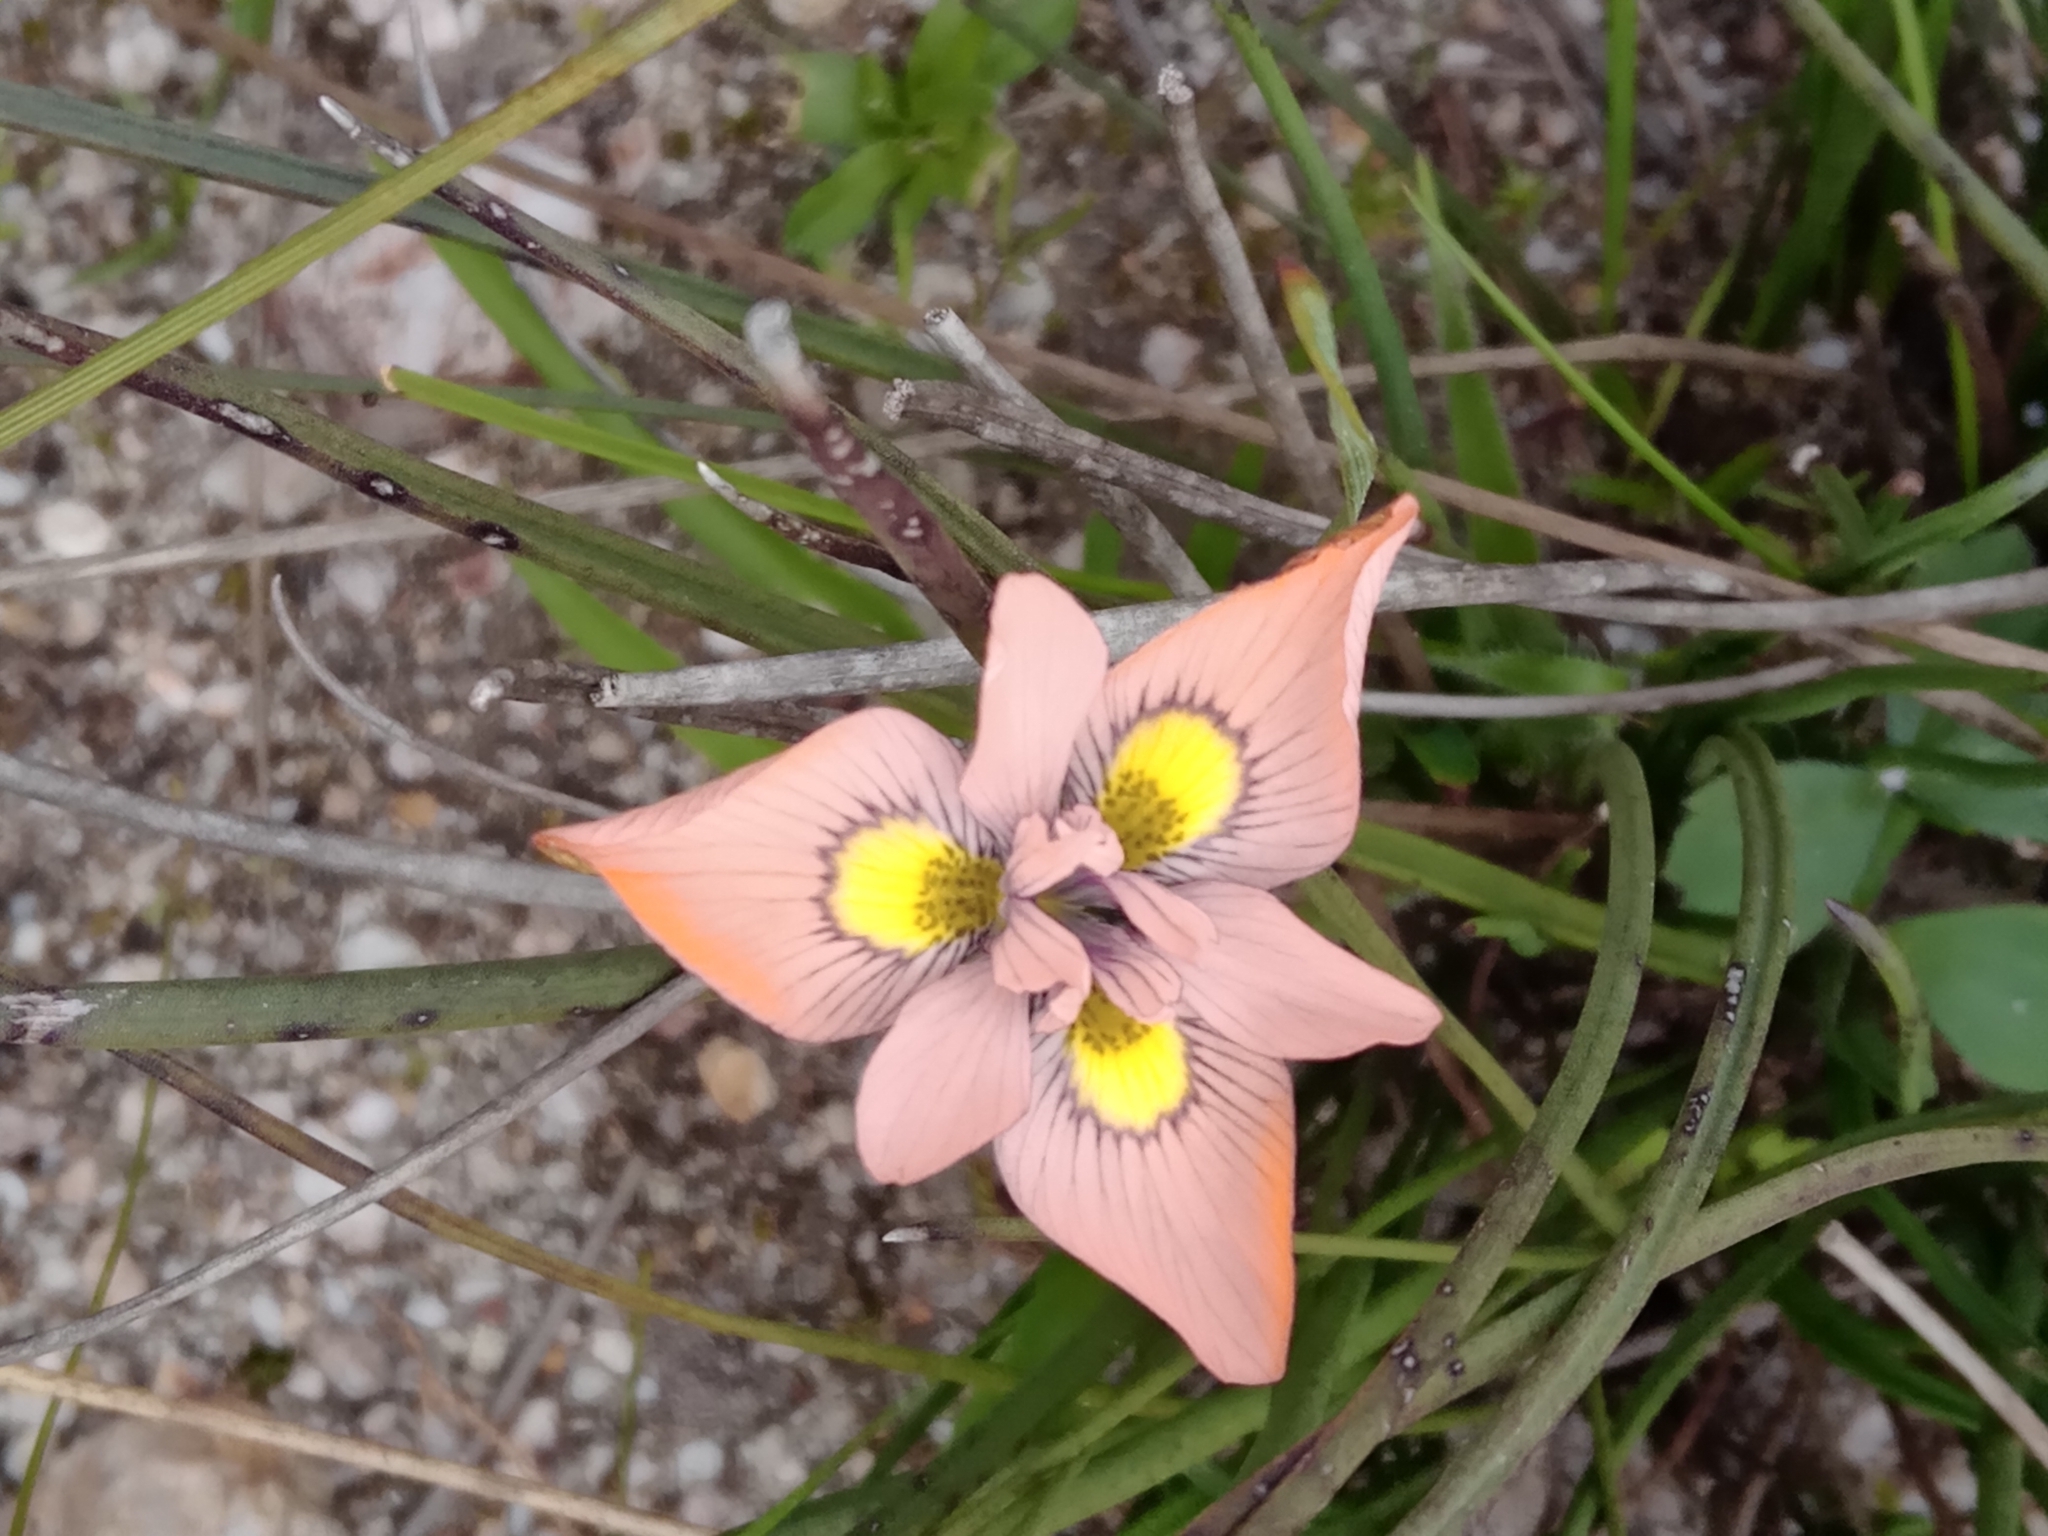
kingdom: Plantae
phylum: Tracheophyta
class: Liliopsida
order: Asparagales
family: Iridaceae
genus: Moraea
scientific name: Moraea papilionacea
